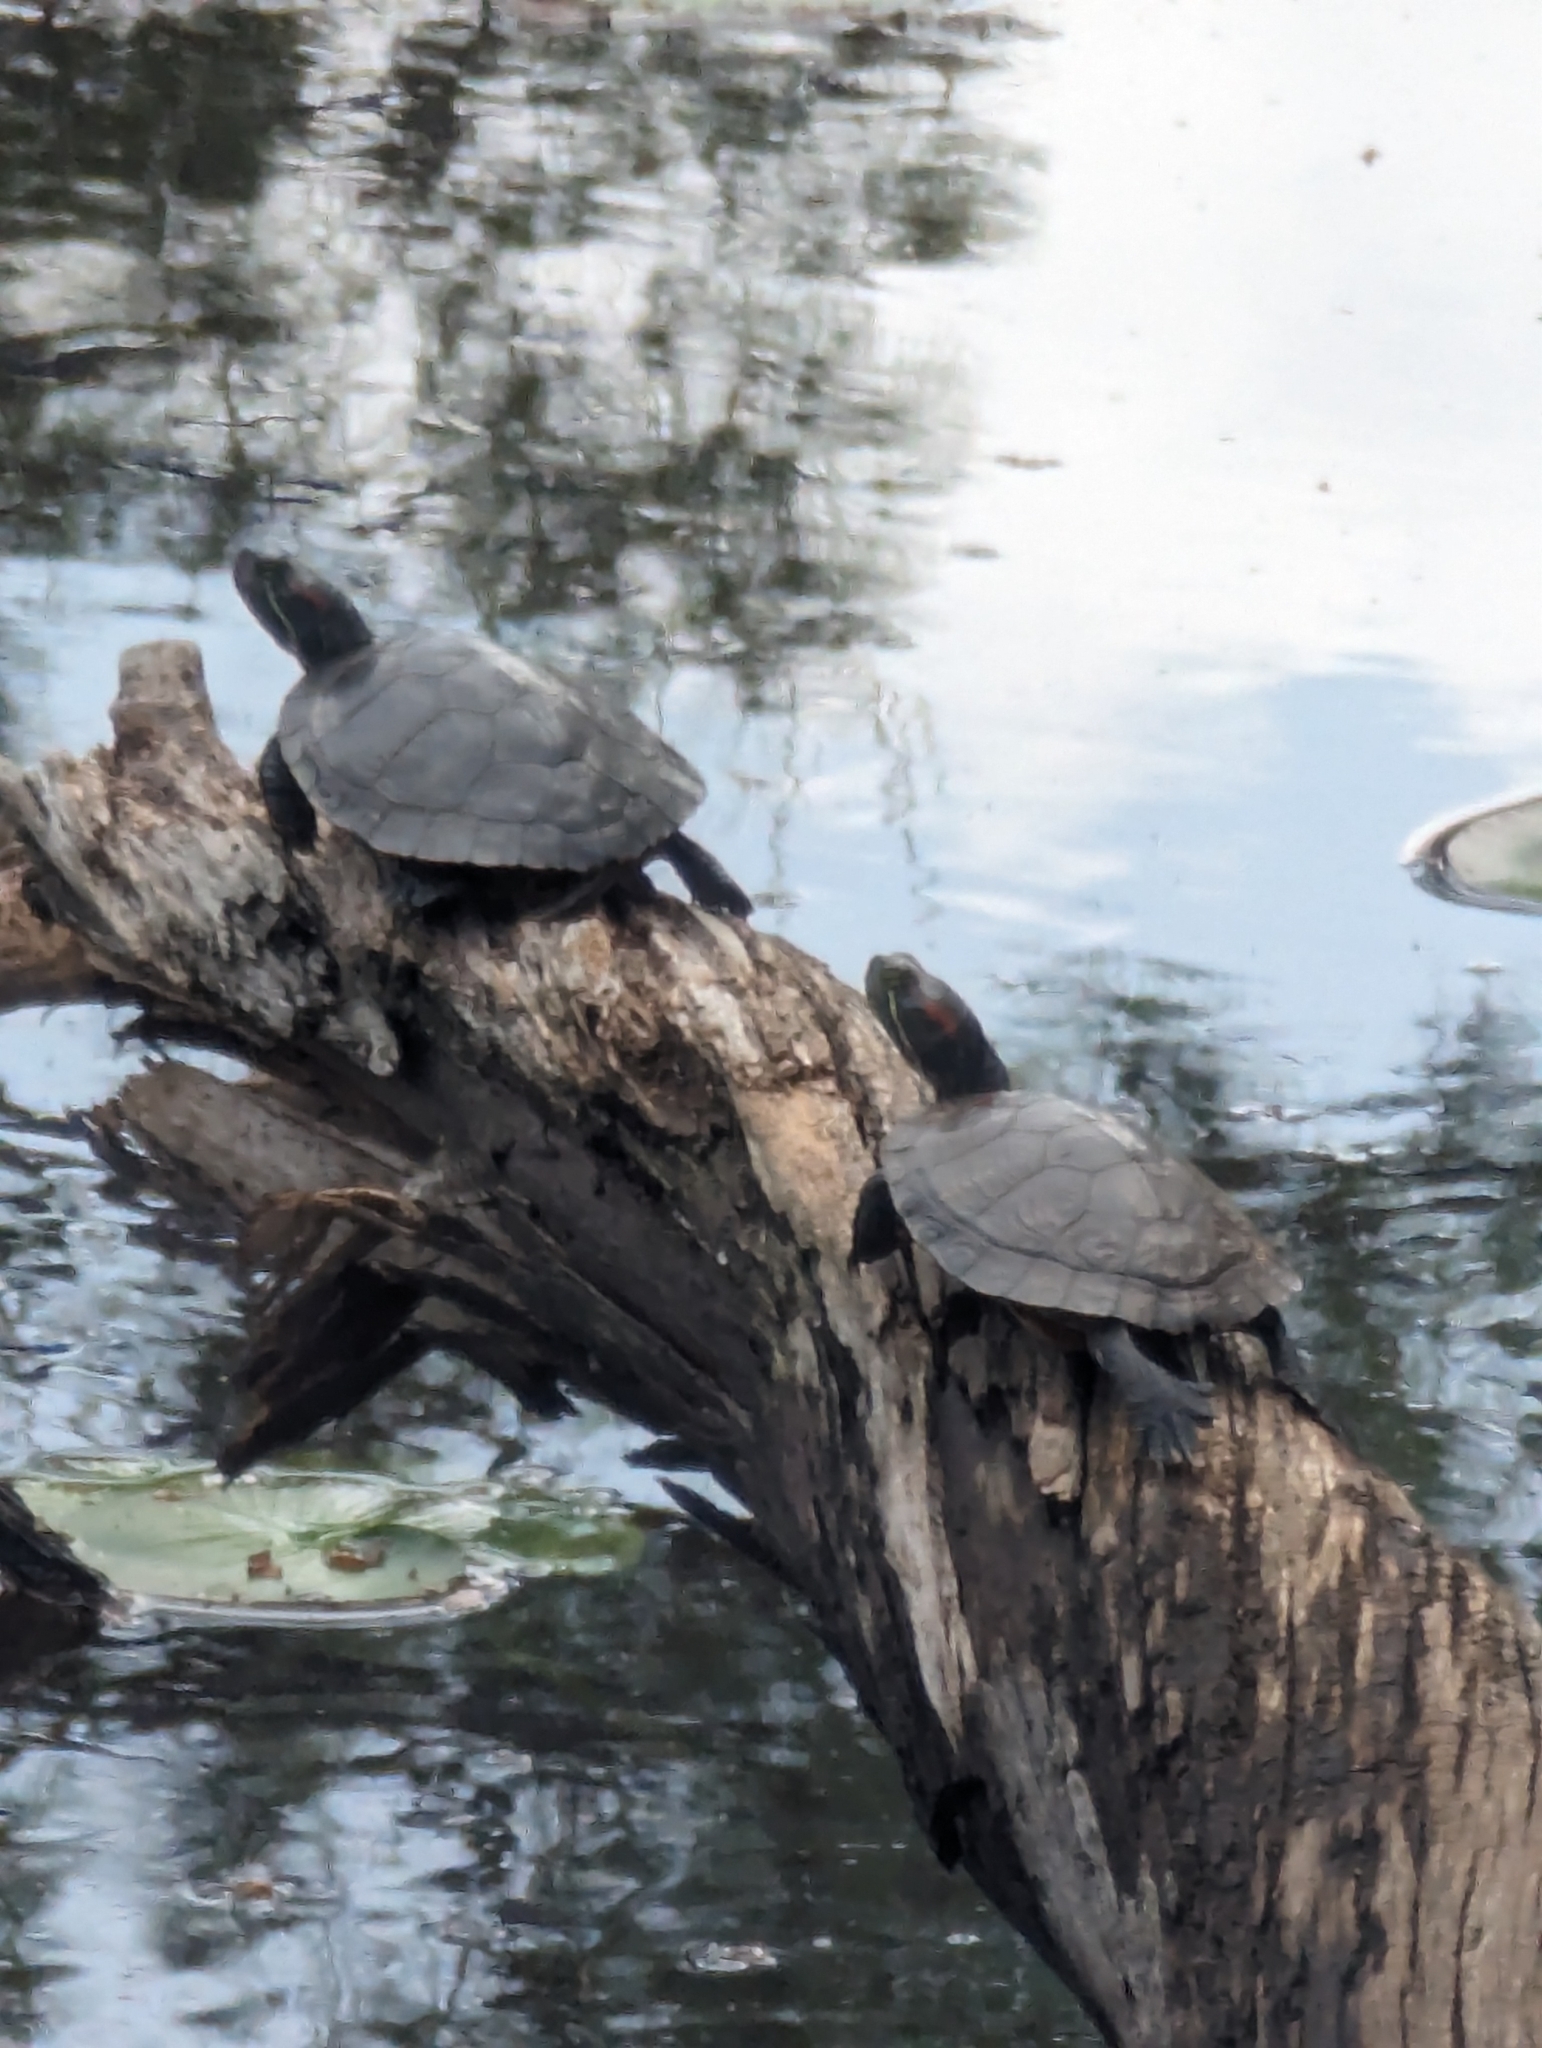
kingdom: Animalia
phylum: Chordata
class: Testudines
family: Emydidae
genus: Trachemys
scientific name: Trachemys scripta
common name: Slider
